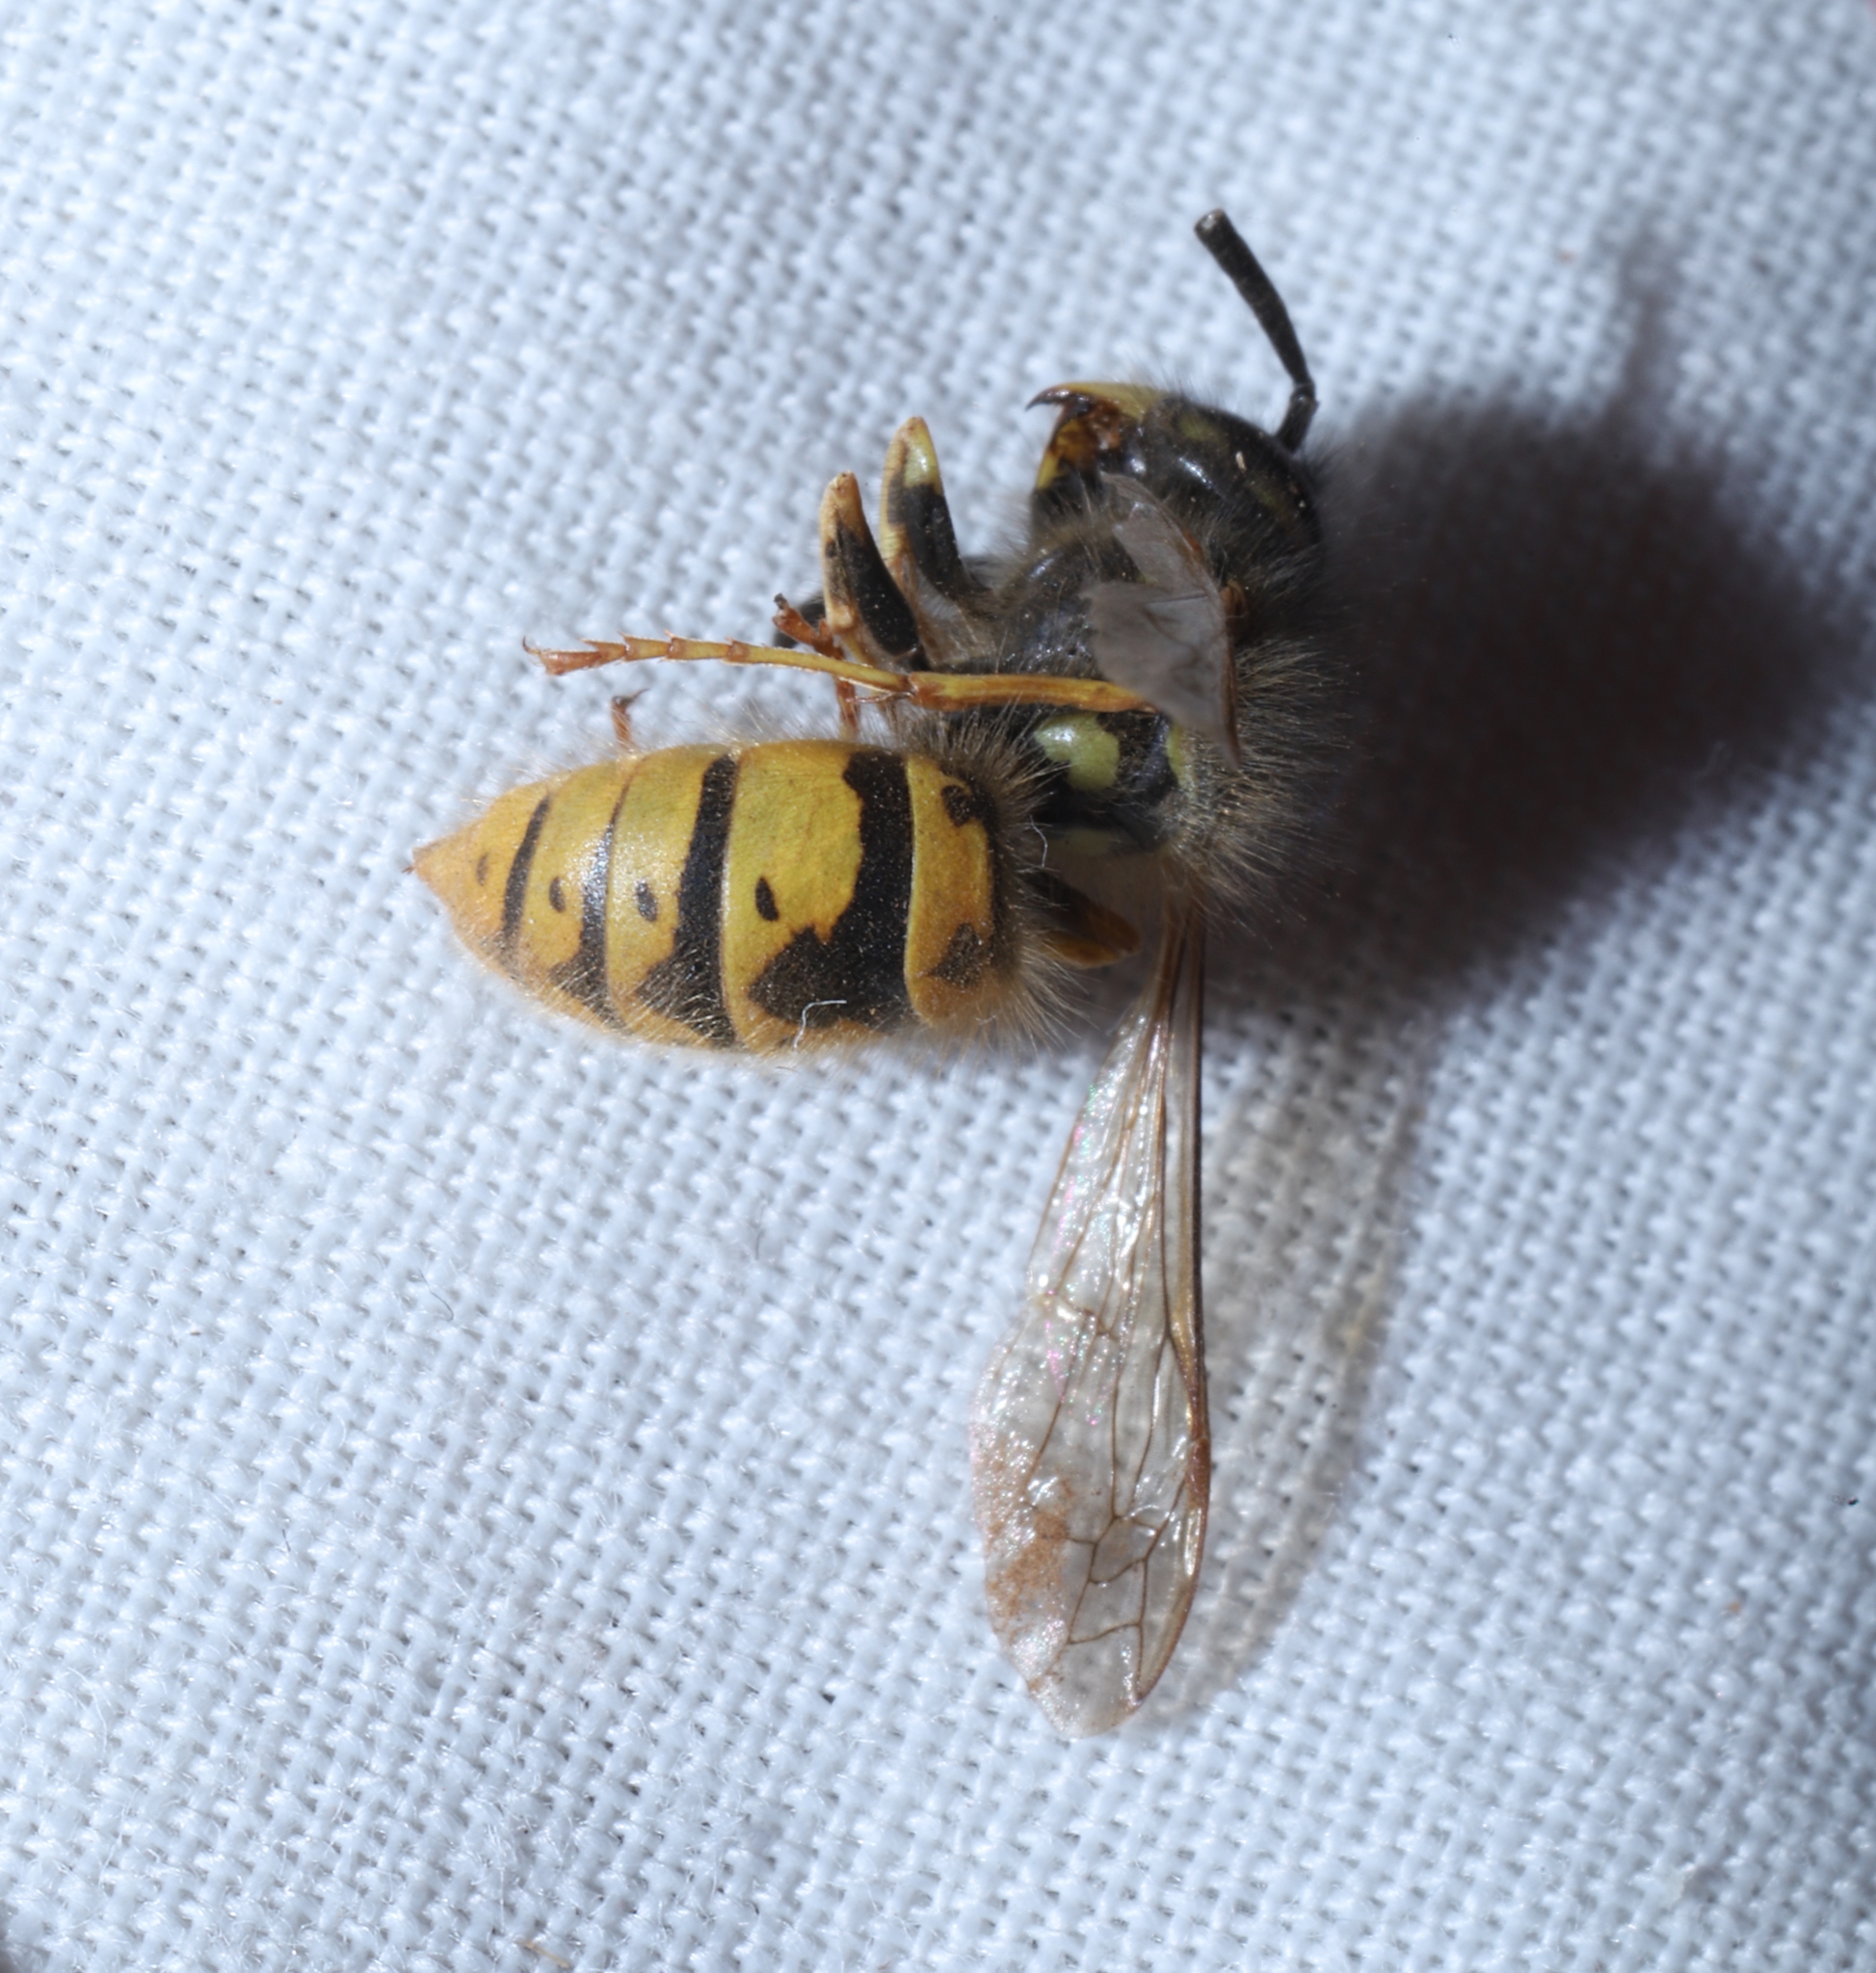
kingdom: Animalia
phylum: Arthropoda
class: Insecta
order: Hymenoptera
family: Vespidae
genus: Vespula
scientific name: Vespula vulgaris
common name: Common wasp
